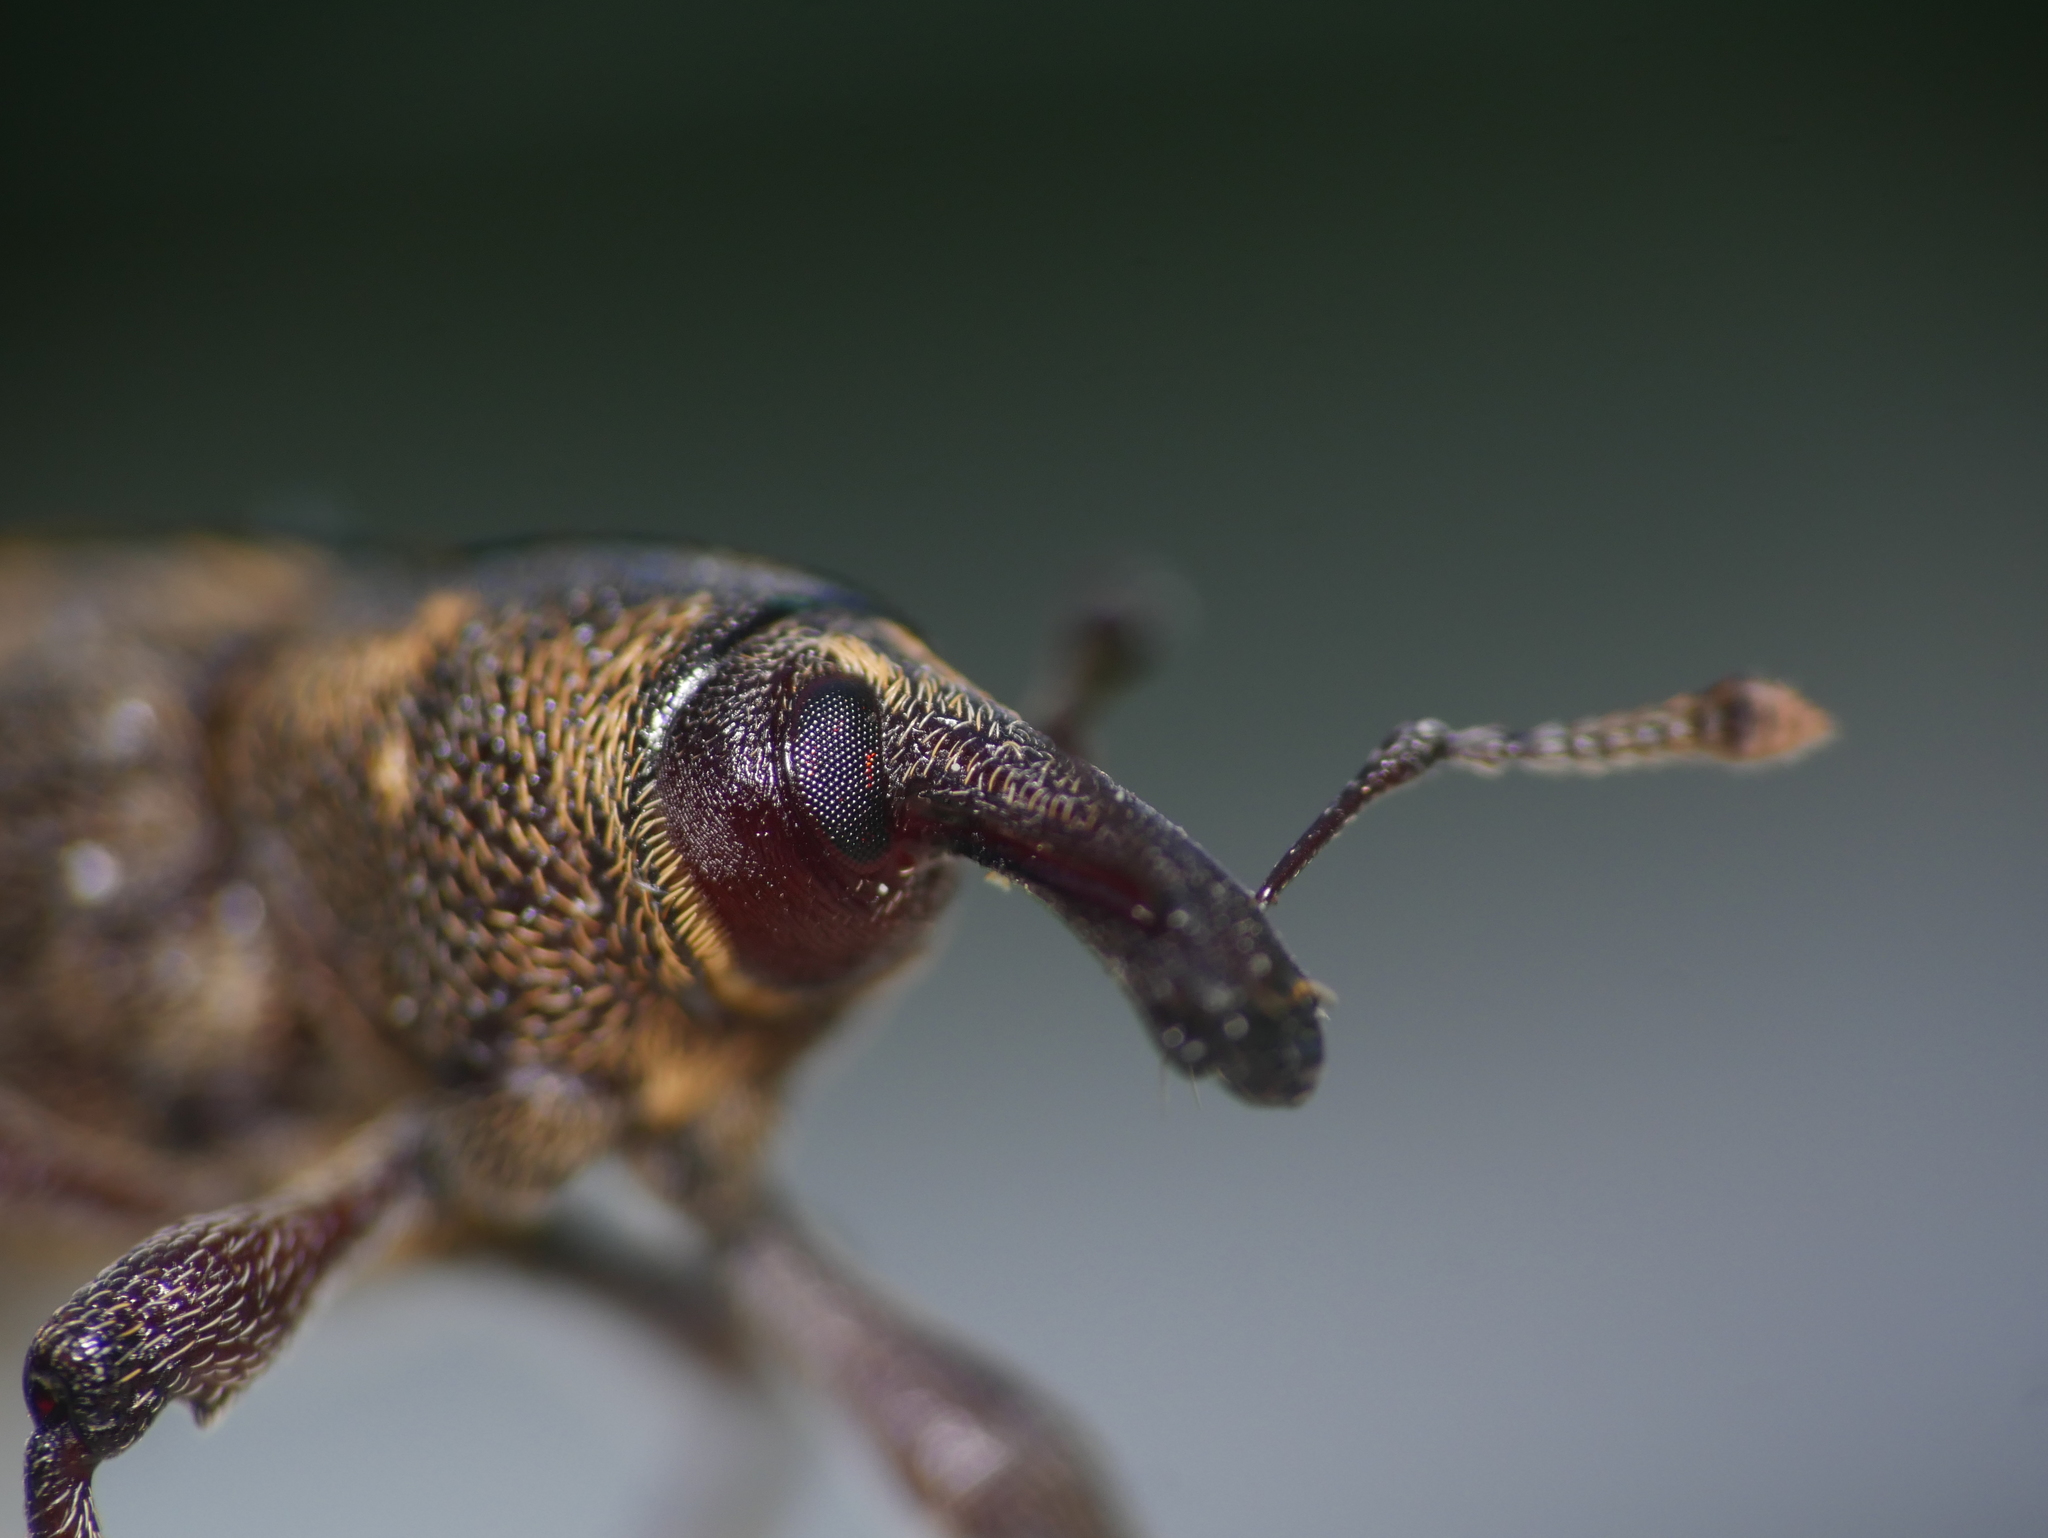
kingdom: Animalia
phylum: Arthropoda
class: Insecta
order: Coleoptera
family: Curculionidae
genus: Hylobius
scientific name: Hylobius abietis
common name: Large pine weevil
